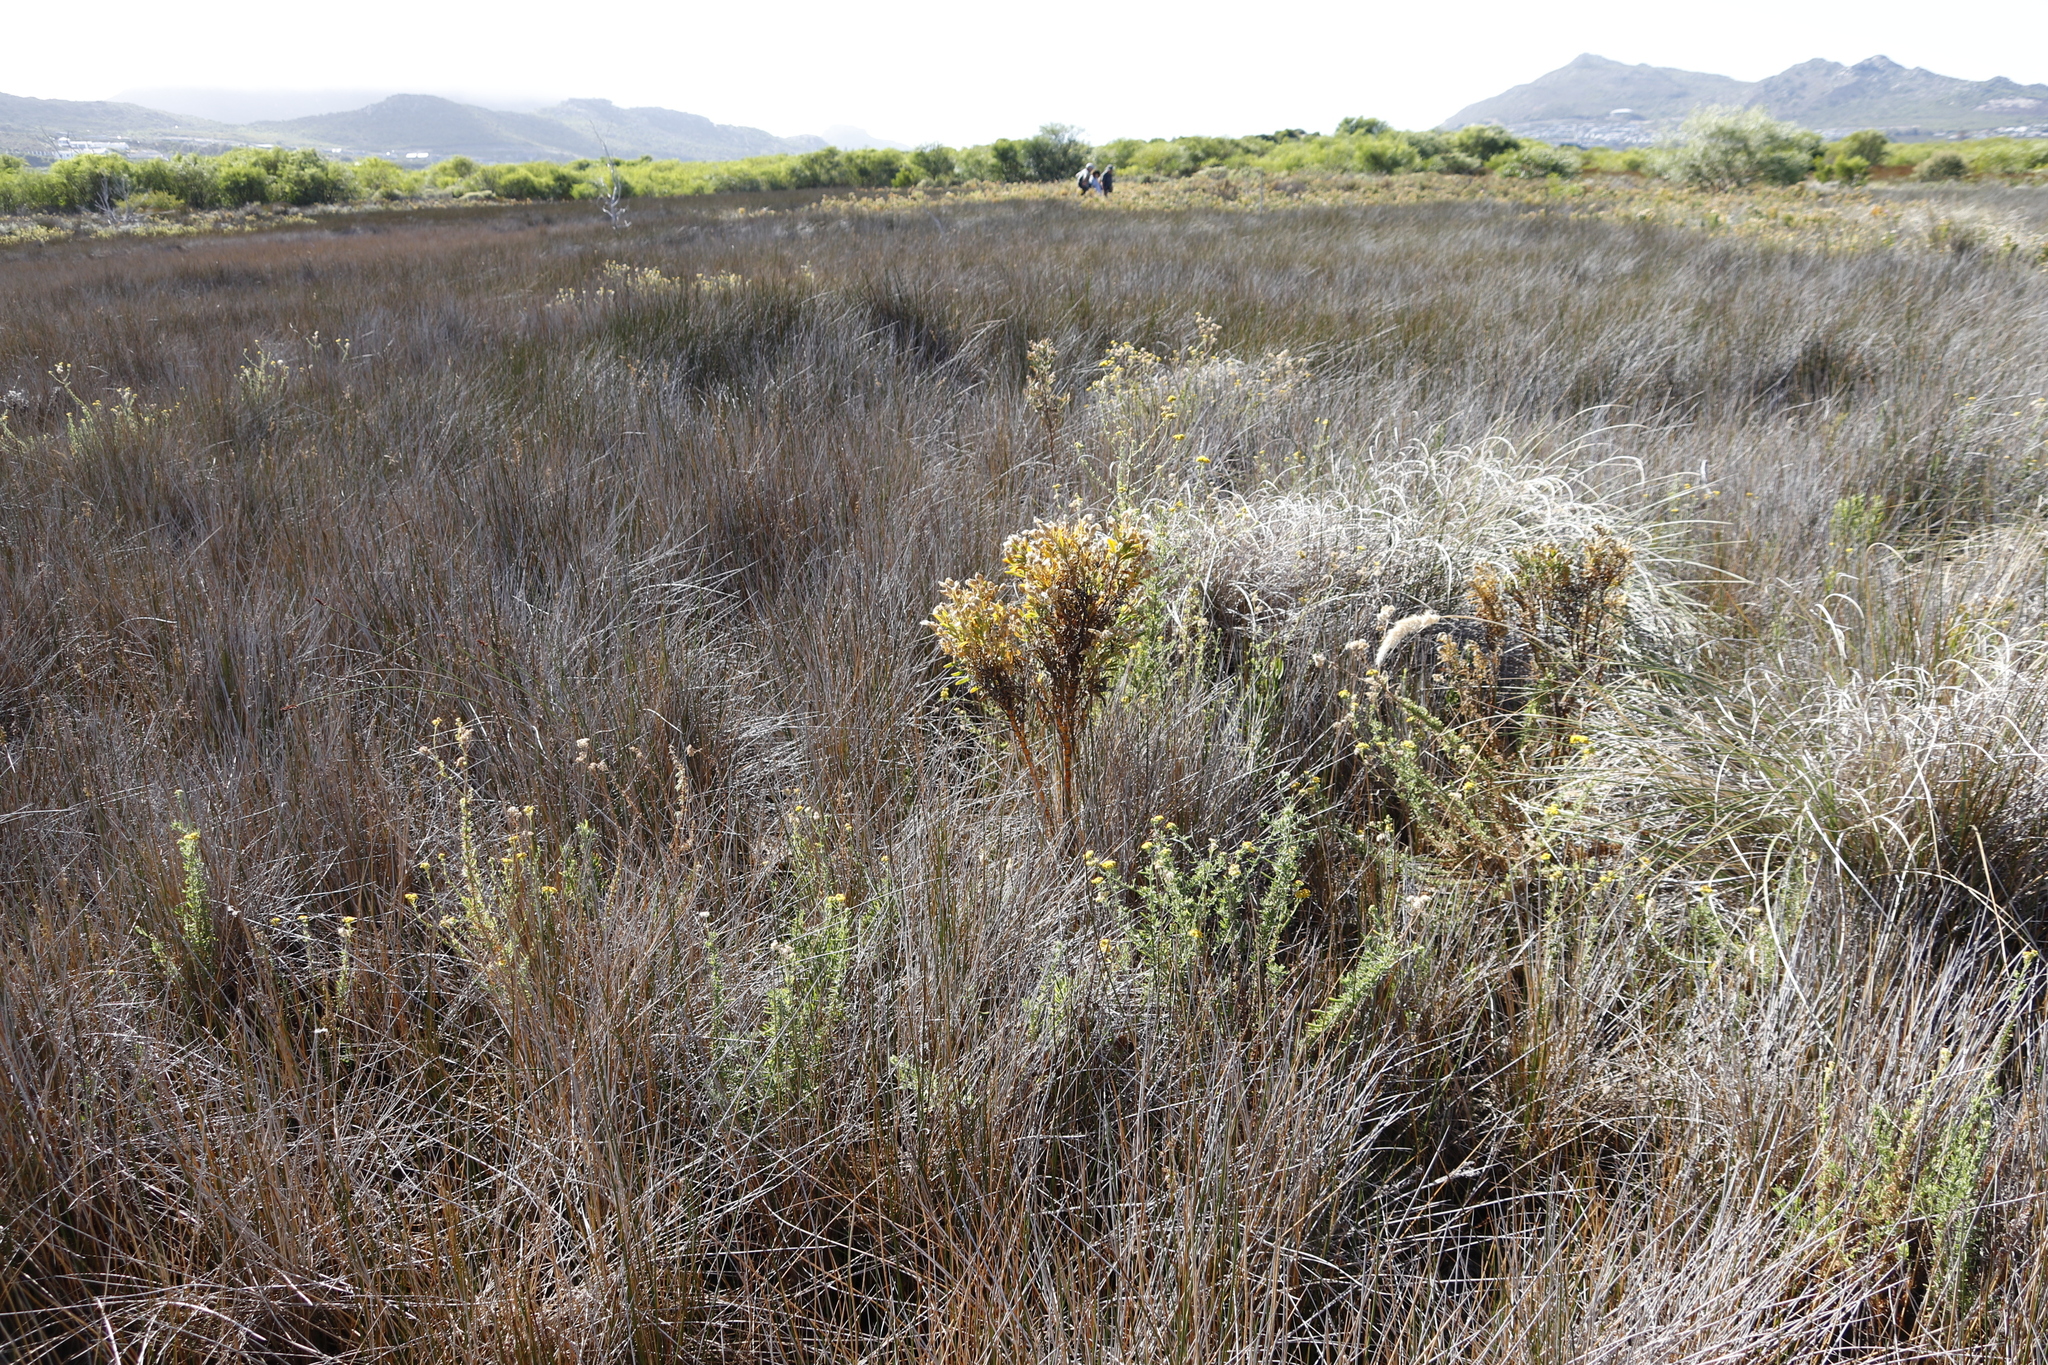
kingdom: Plantae
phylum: Tracheophyta
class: Magnoliopsida
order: Gentianales
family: Gentianaceae
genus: Orphium
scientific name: Orphium frutescens
